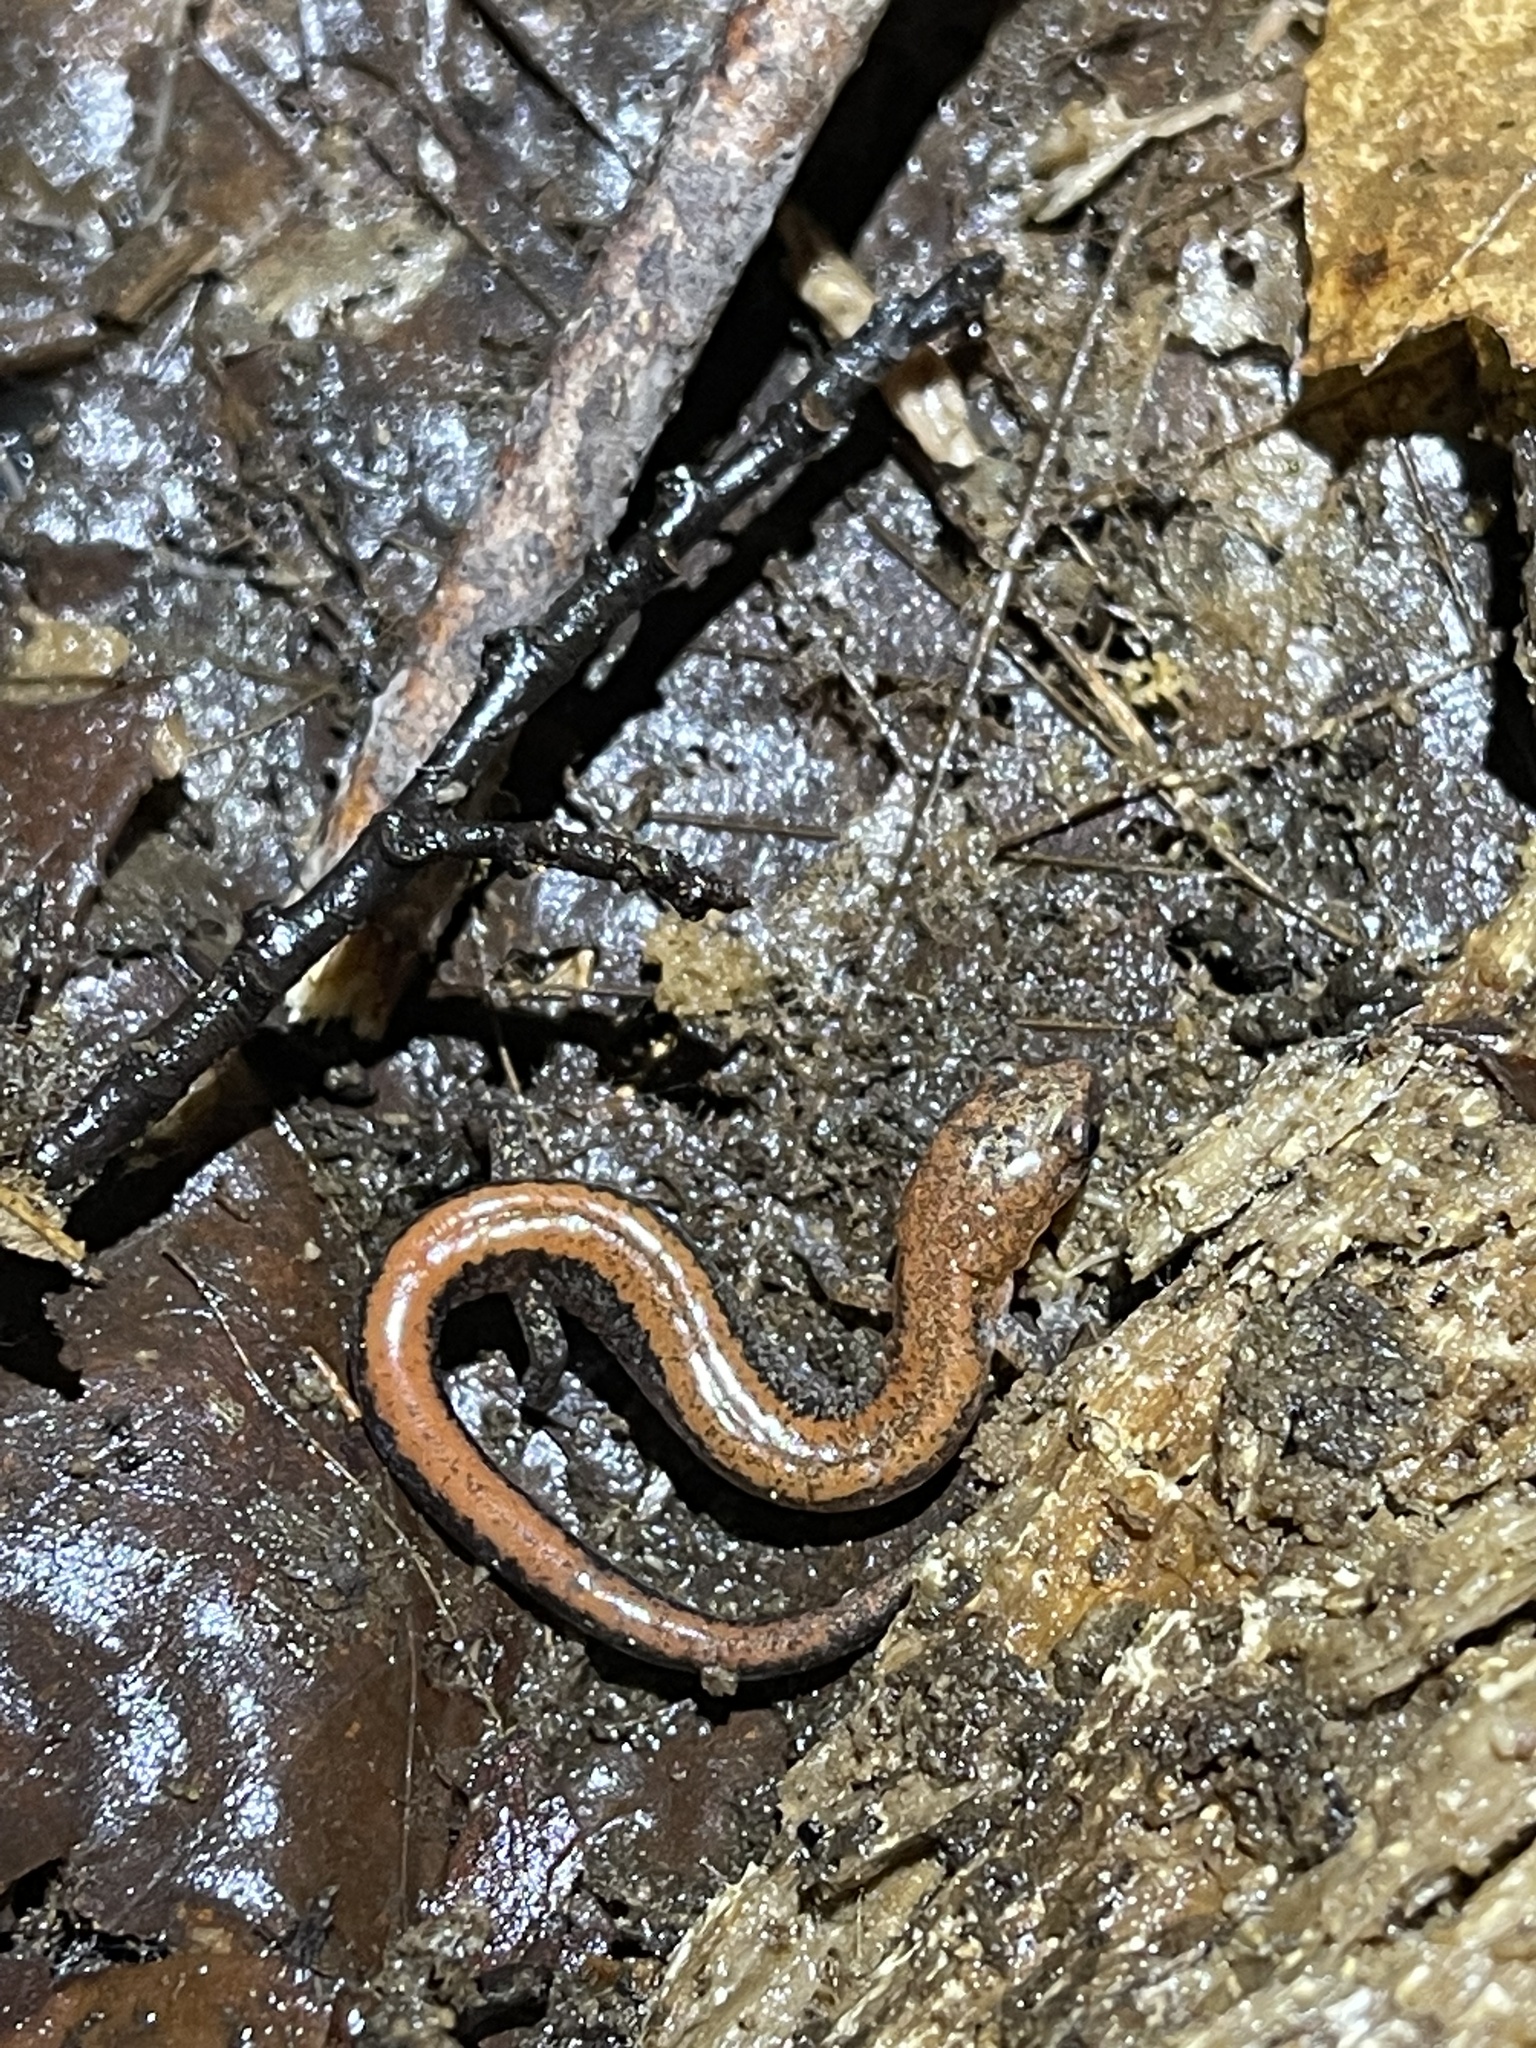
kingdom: Animalia
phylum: Chordata
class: Amphibia
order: Caudata
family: Plethodontidae
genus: Plethodon
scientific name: Plethodon cinereus
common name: Redback salamander
